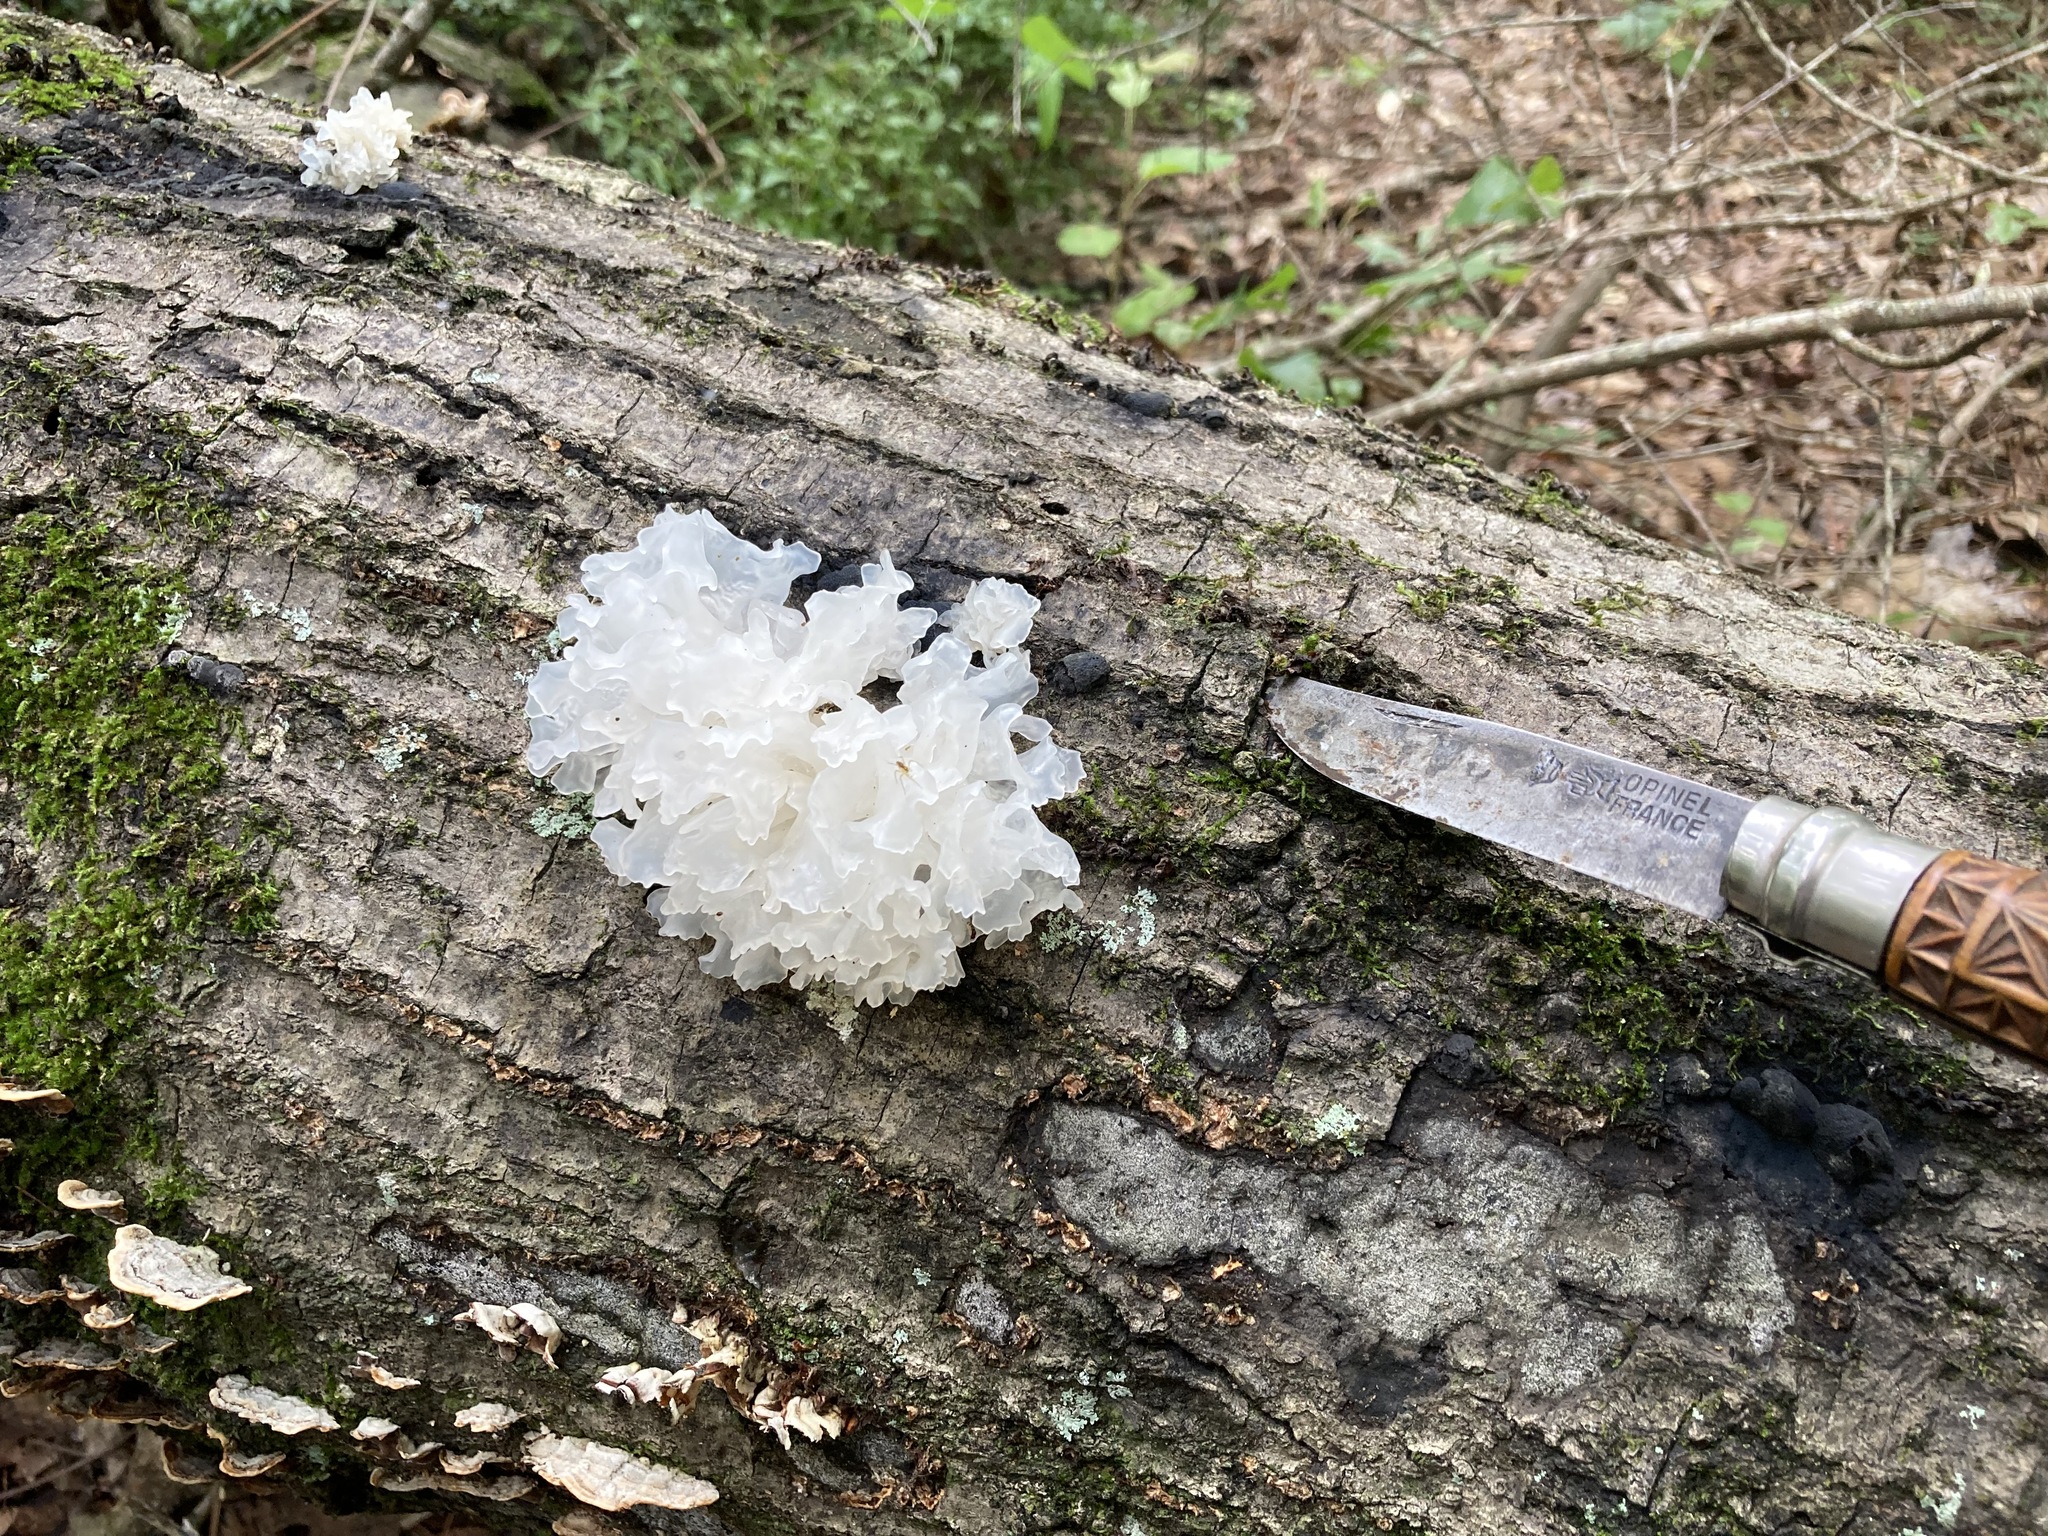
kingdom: Fungi
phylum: Basidiomycota
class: Tremellomycetes
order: Tremellales
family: Tremellaceae
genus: Tremella
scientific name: Tremella fuciformis
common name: Snow fungus
